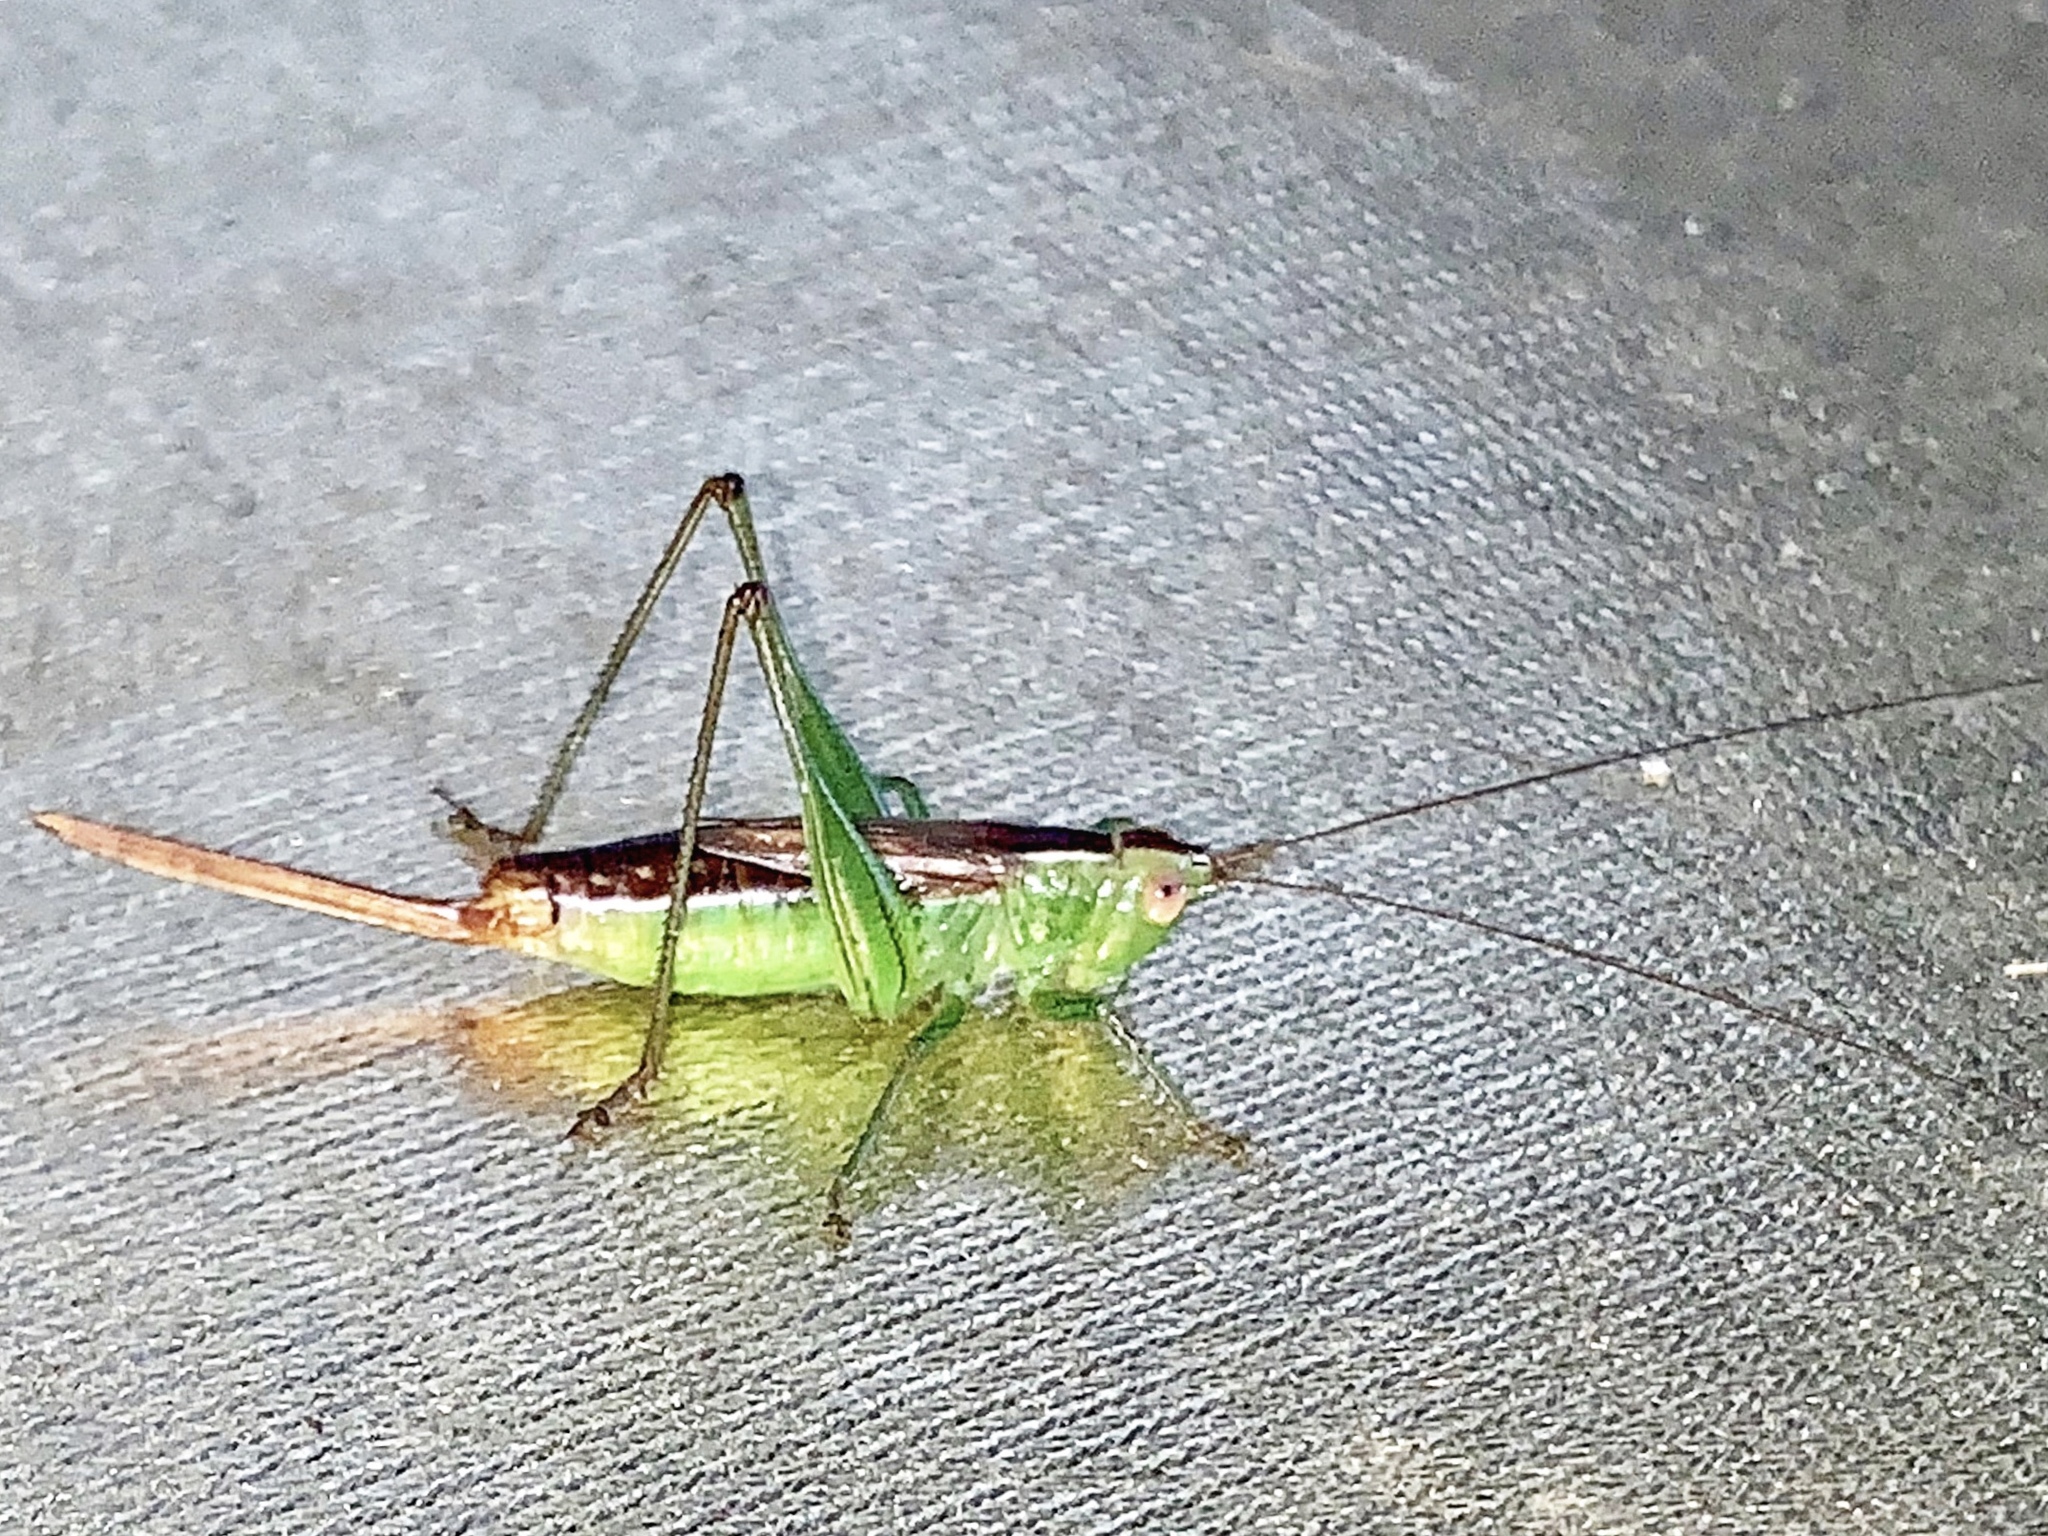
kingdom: Animalia
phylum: Arthropoda
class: Insecta
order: Orthoptera
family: Tettigoniidae
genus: Conocephalus
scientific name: Conocephalus brevipennis
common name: Short-winged meadow katydid
